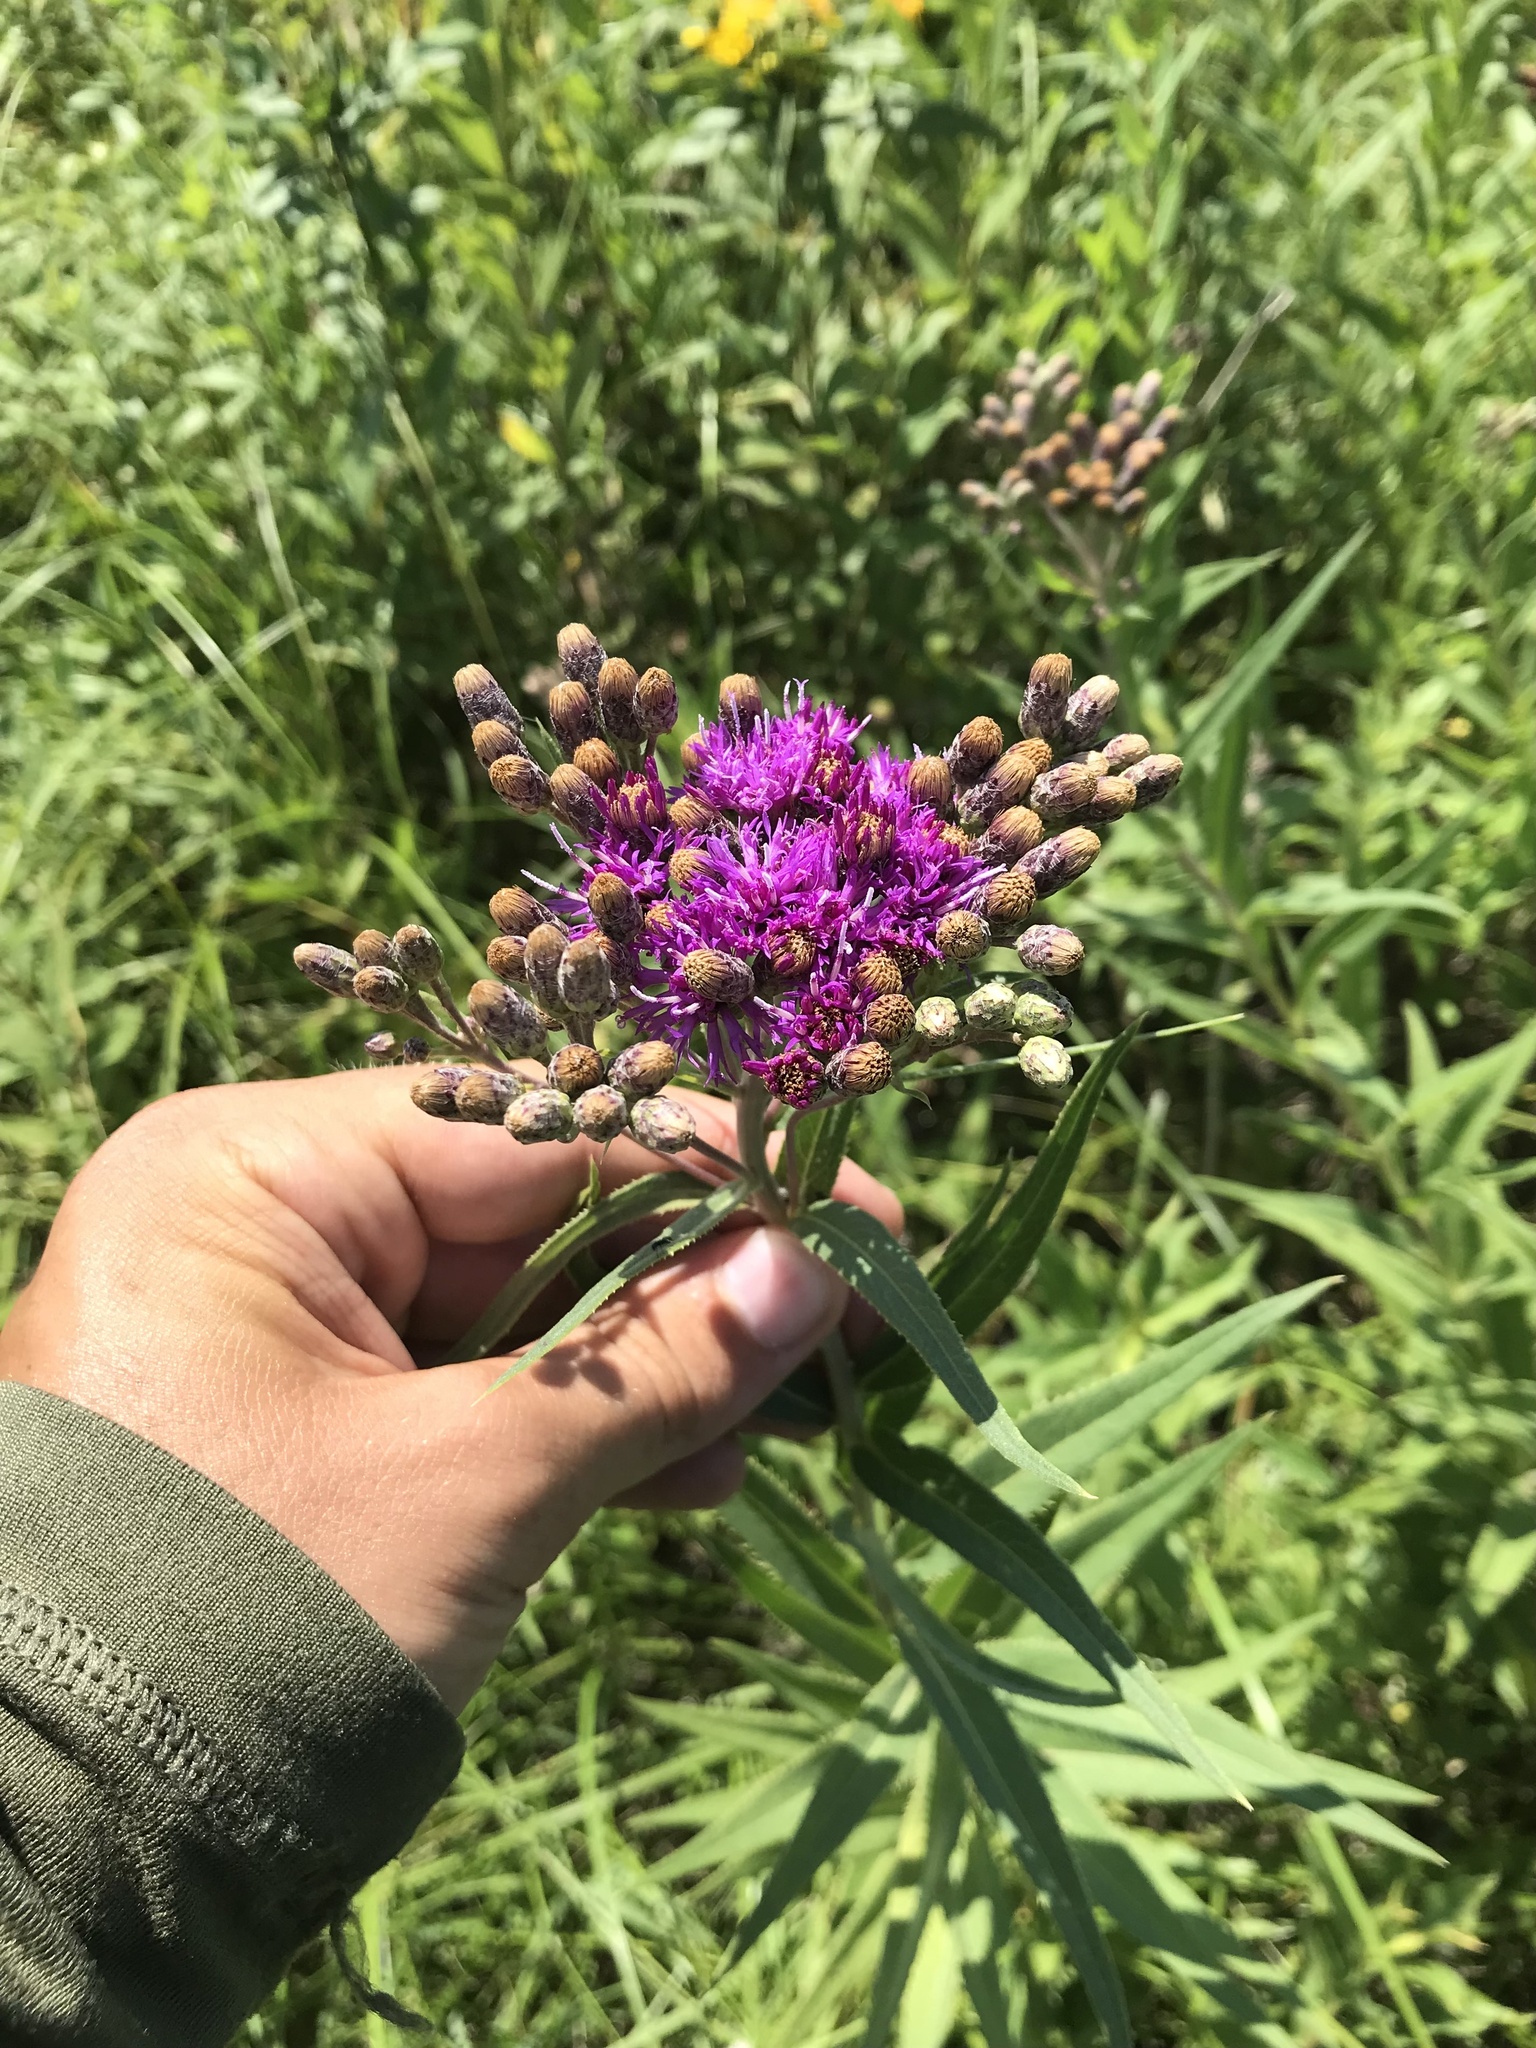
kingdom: Plantae
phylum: Tracheophyta
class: Magnoliopsida
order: Asterales
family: Asteraceae
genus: Vernonia
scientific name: Vernonia fasciculata
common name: Fascicled ironweed
